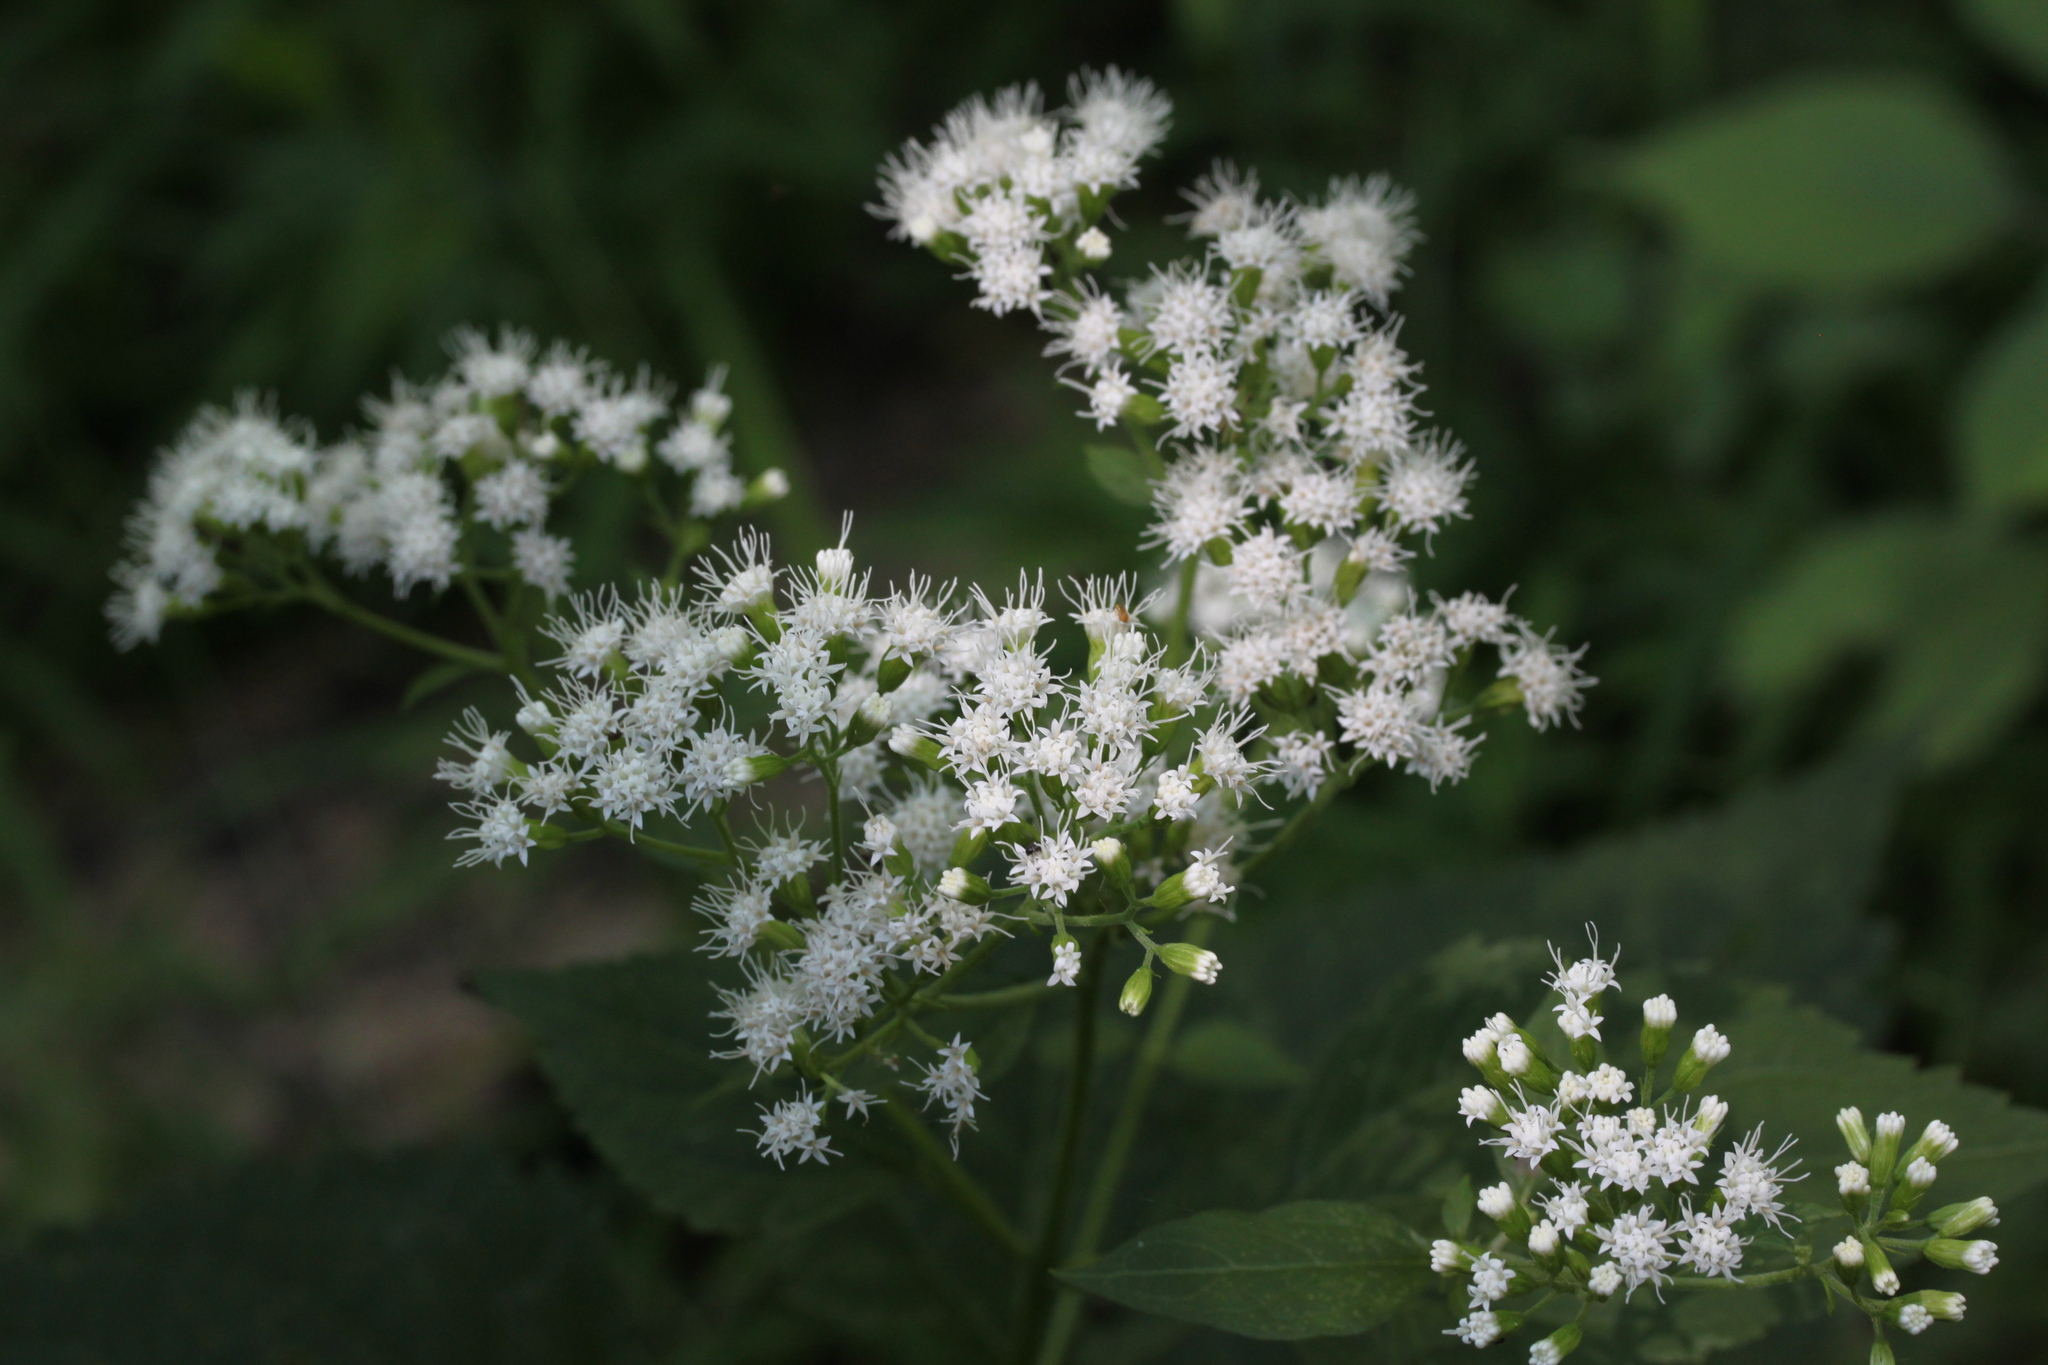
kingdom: Plantae
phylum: Tracheophyta
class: Magnoliopsida
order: Asterales
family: Asteraceae
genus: Ageratina
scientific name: Ageratina altissima
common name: White snakeroot
